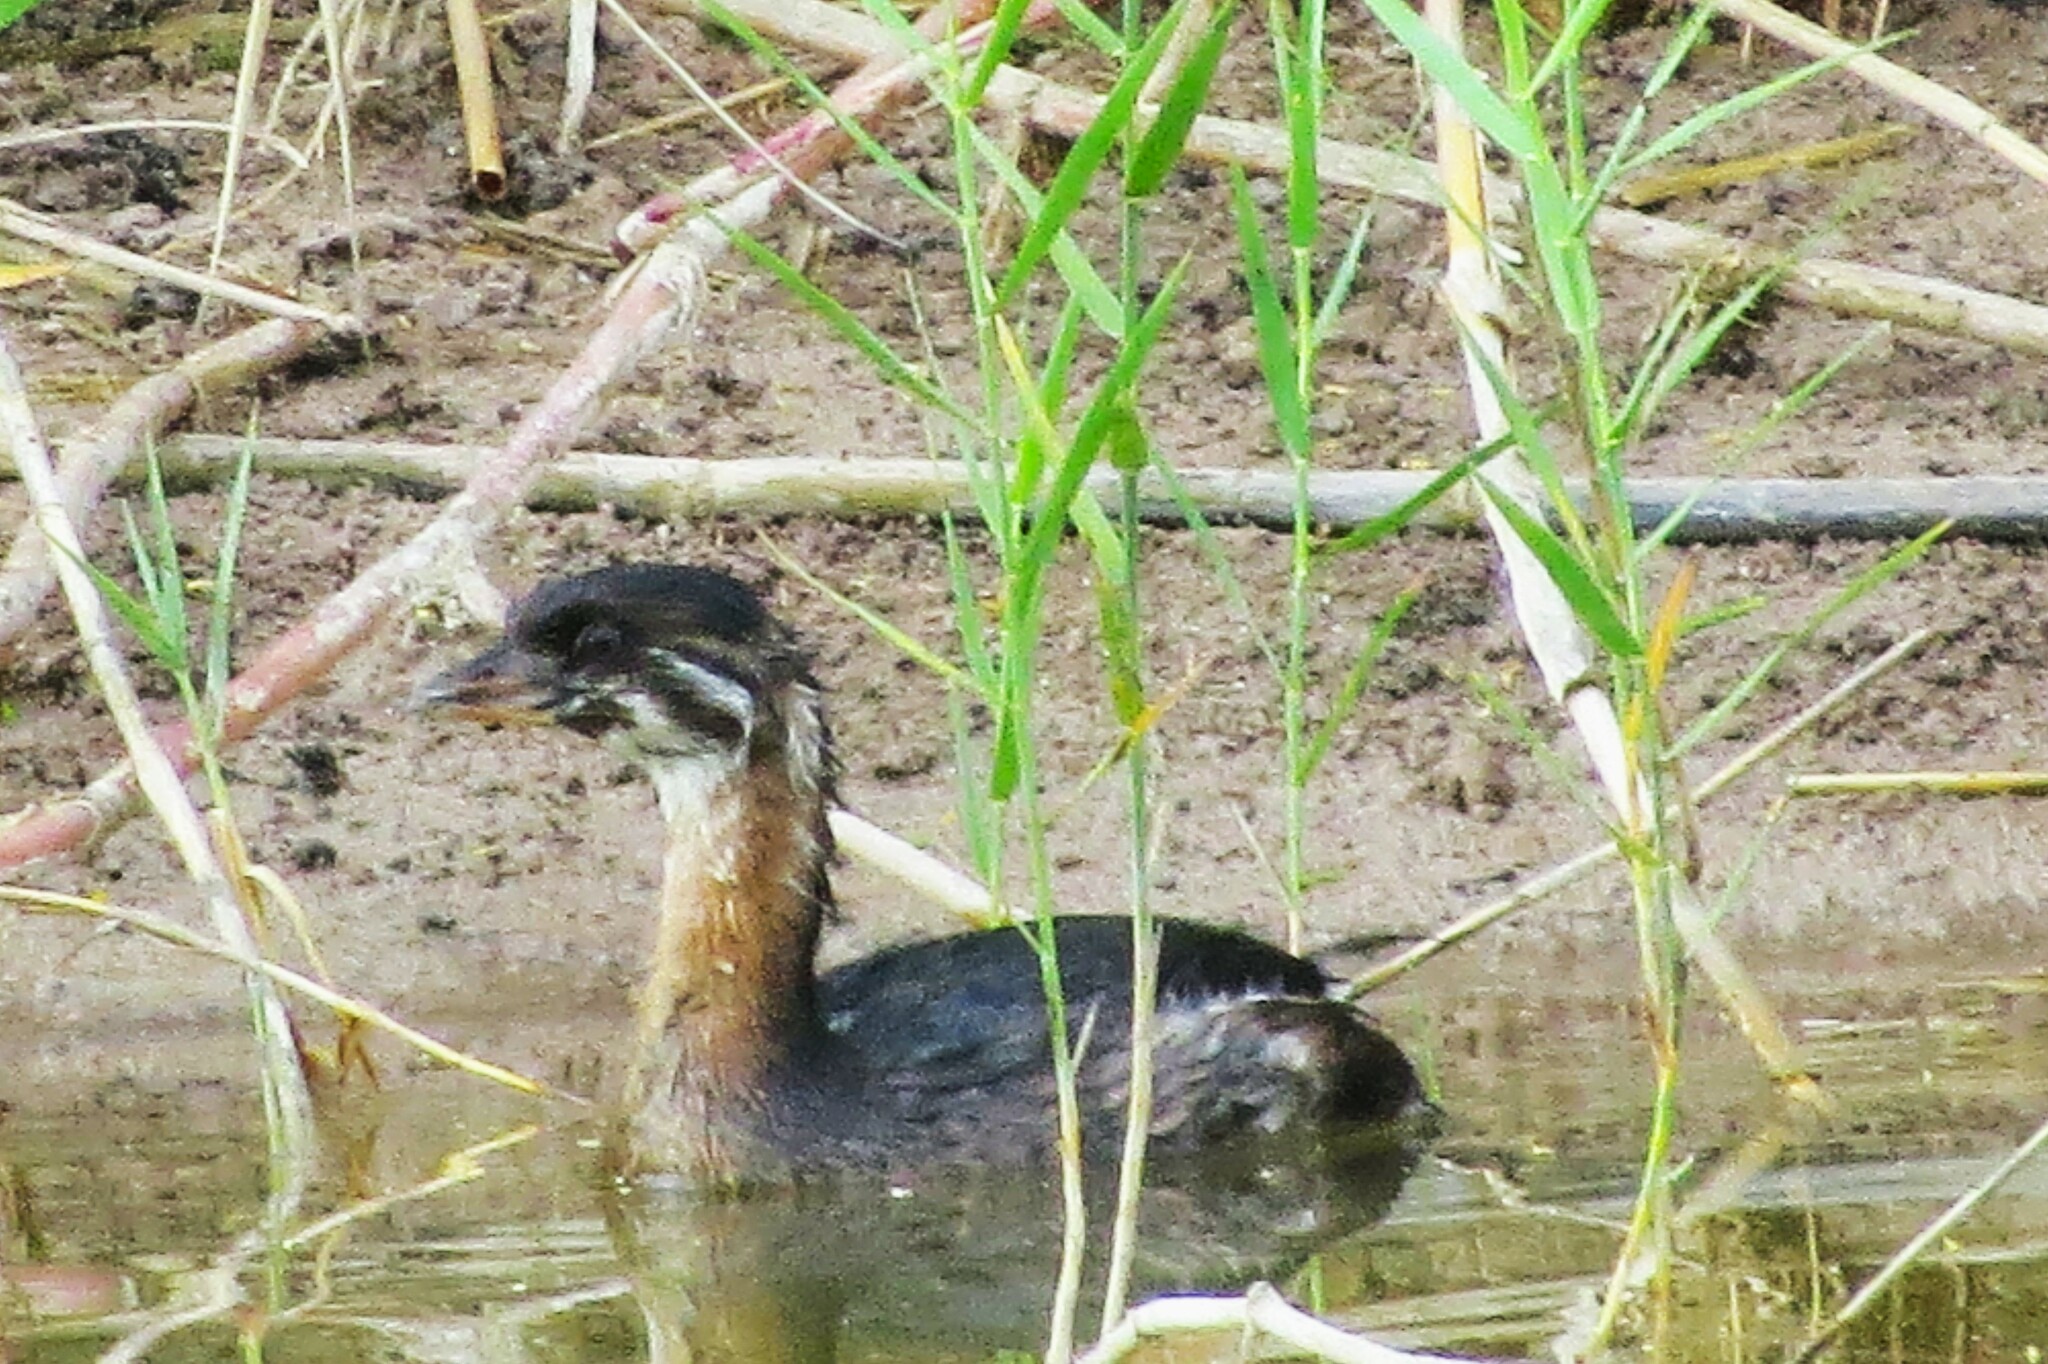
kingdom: Animalia
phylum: Chordata
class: Aves
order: Podicipediformes
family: Podicipedidae
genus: Podilymbus
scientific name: Podilymbus podiceps
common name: Pied-billed grebe
